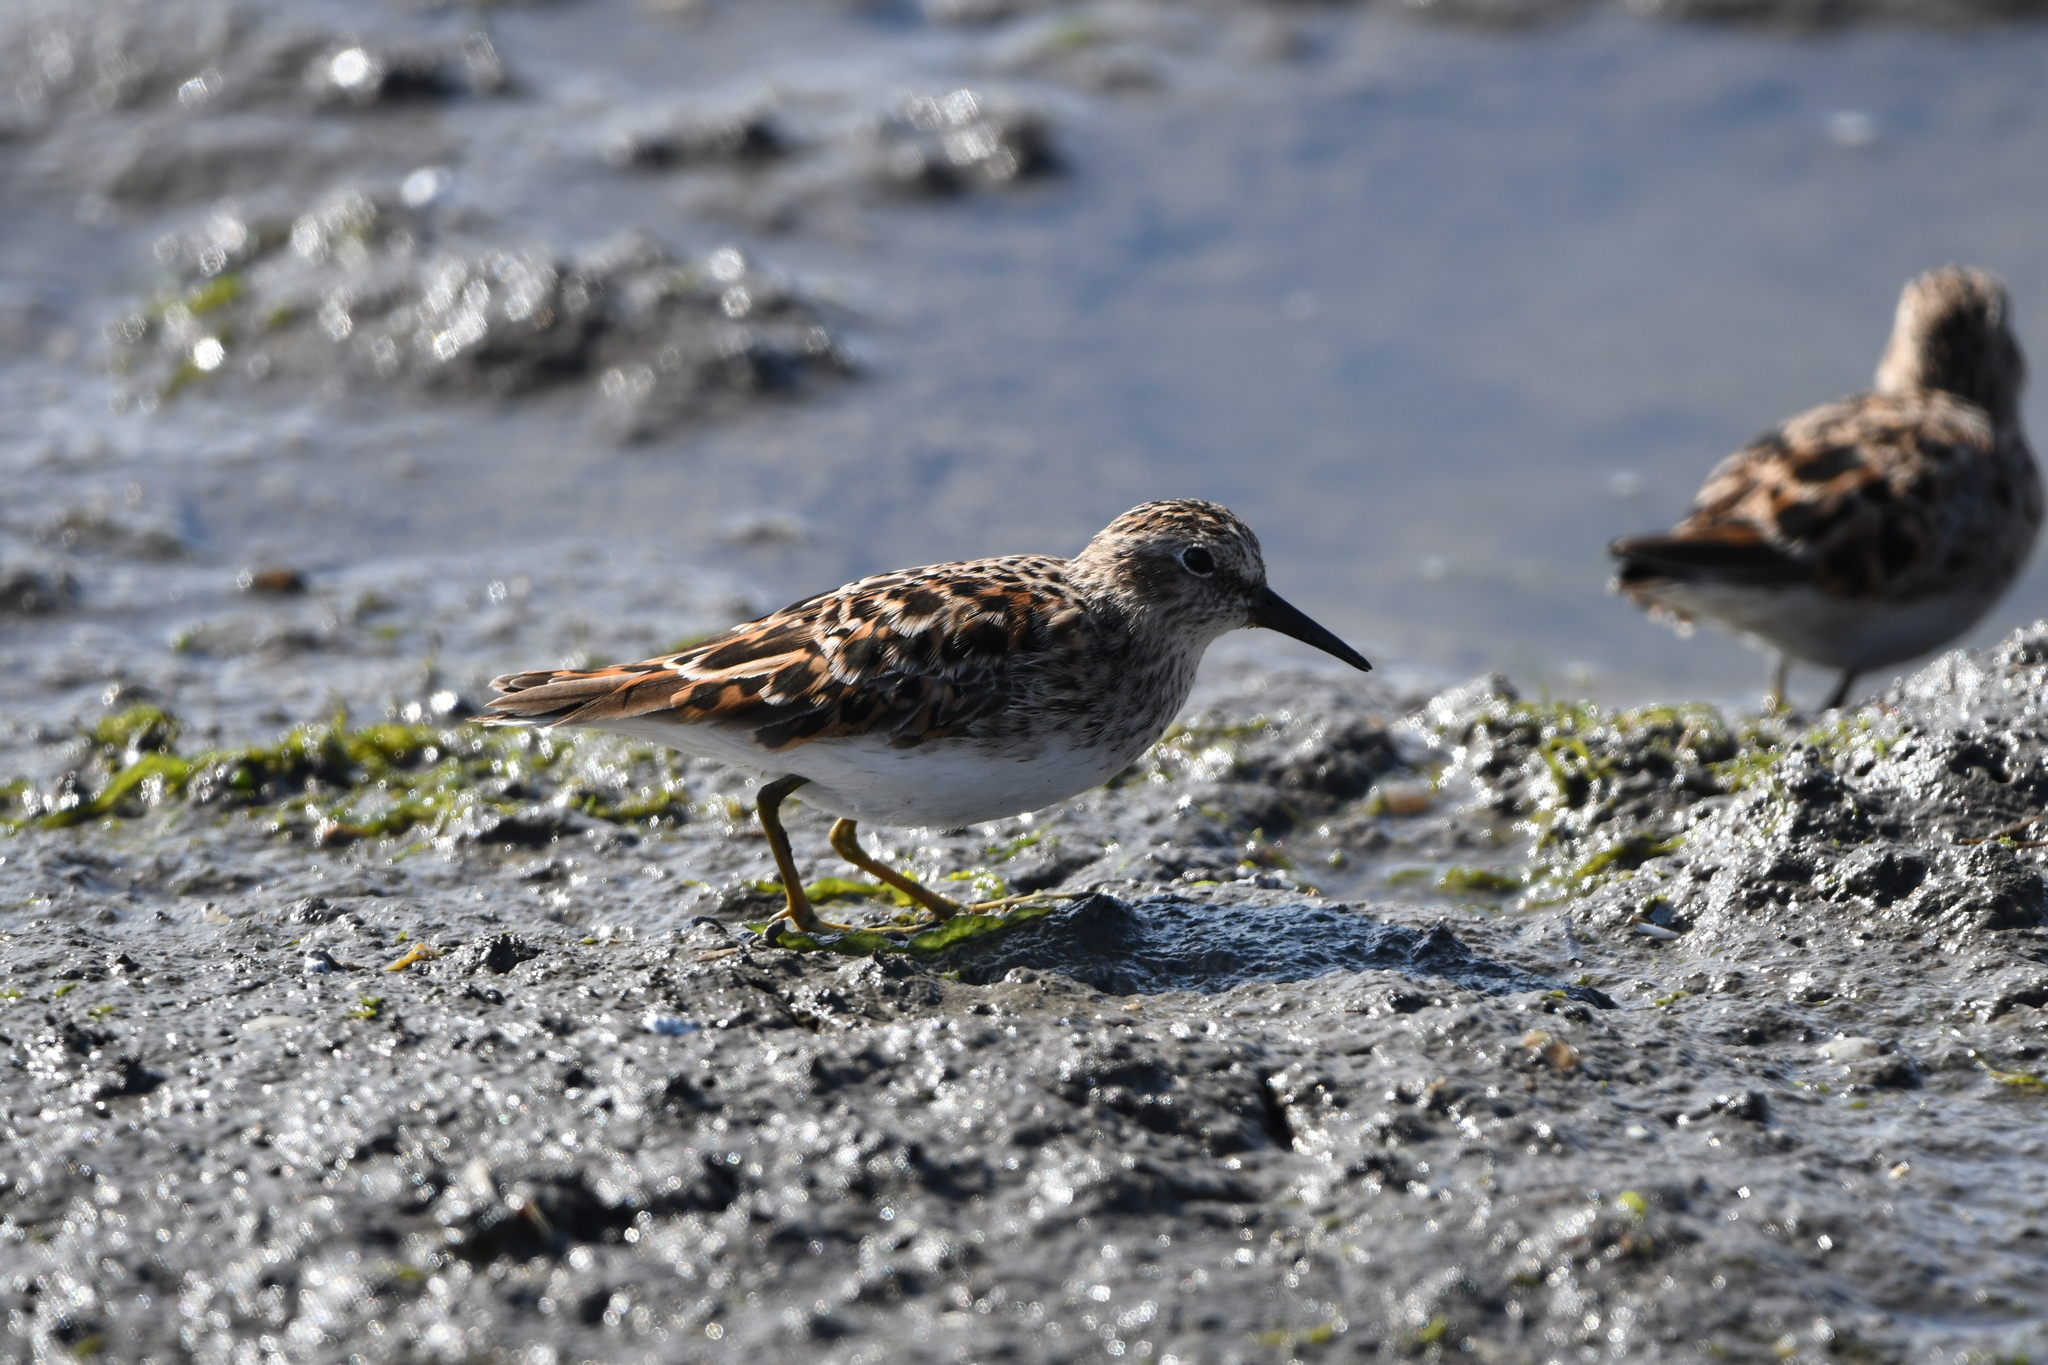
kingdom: Animalia
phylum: Chordata
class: Aves
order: Charadriiformes
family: Scolopacidae
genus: Calidris
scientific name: Calidris minutilla
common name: Least sandpiper
